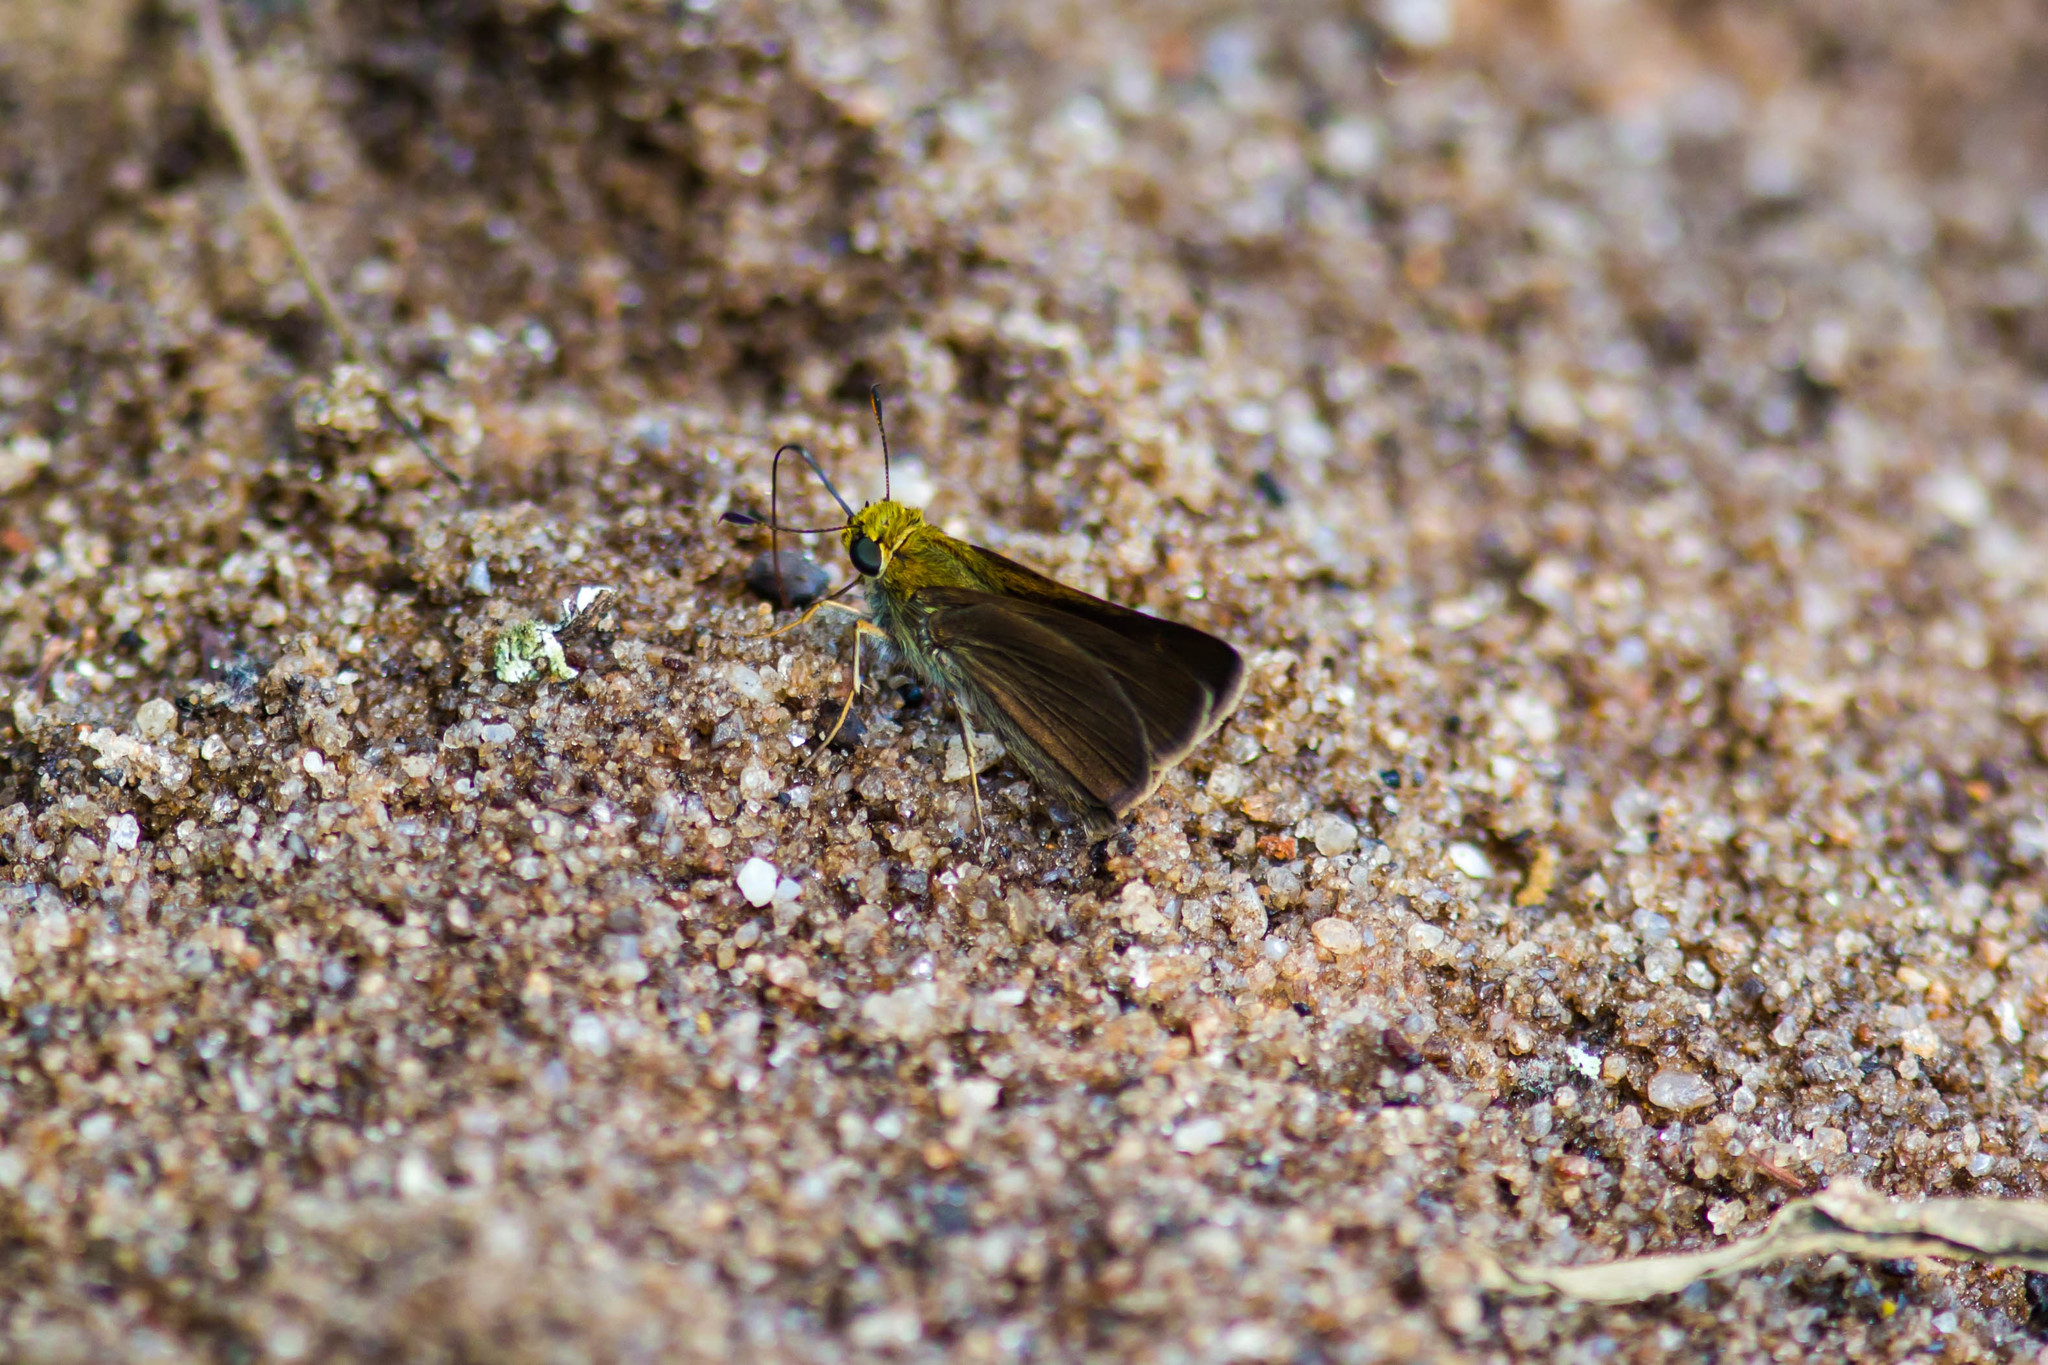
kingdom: Animalia
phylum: Arthropoda
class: Insecta
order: Lepidoptera
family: Hesperiidae
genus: Euphyes
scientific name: Euphyes vestris
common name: Dun skipper
